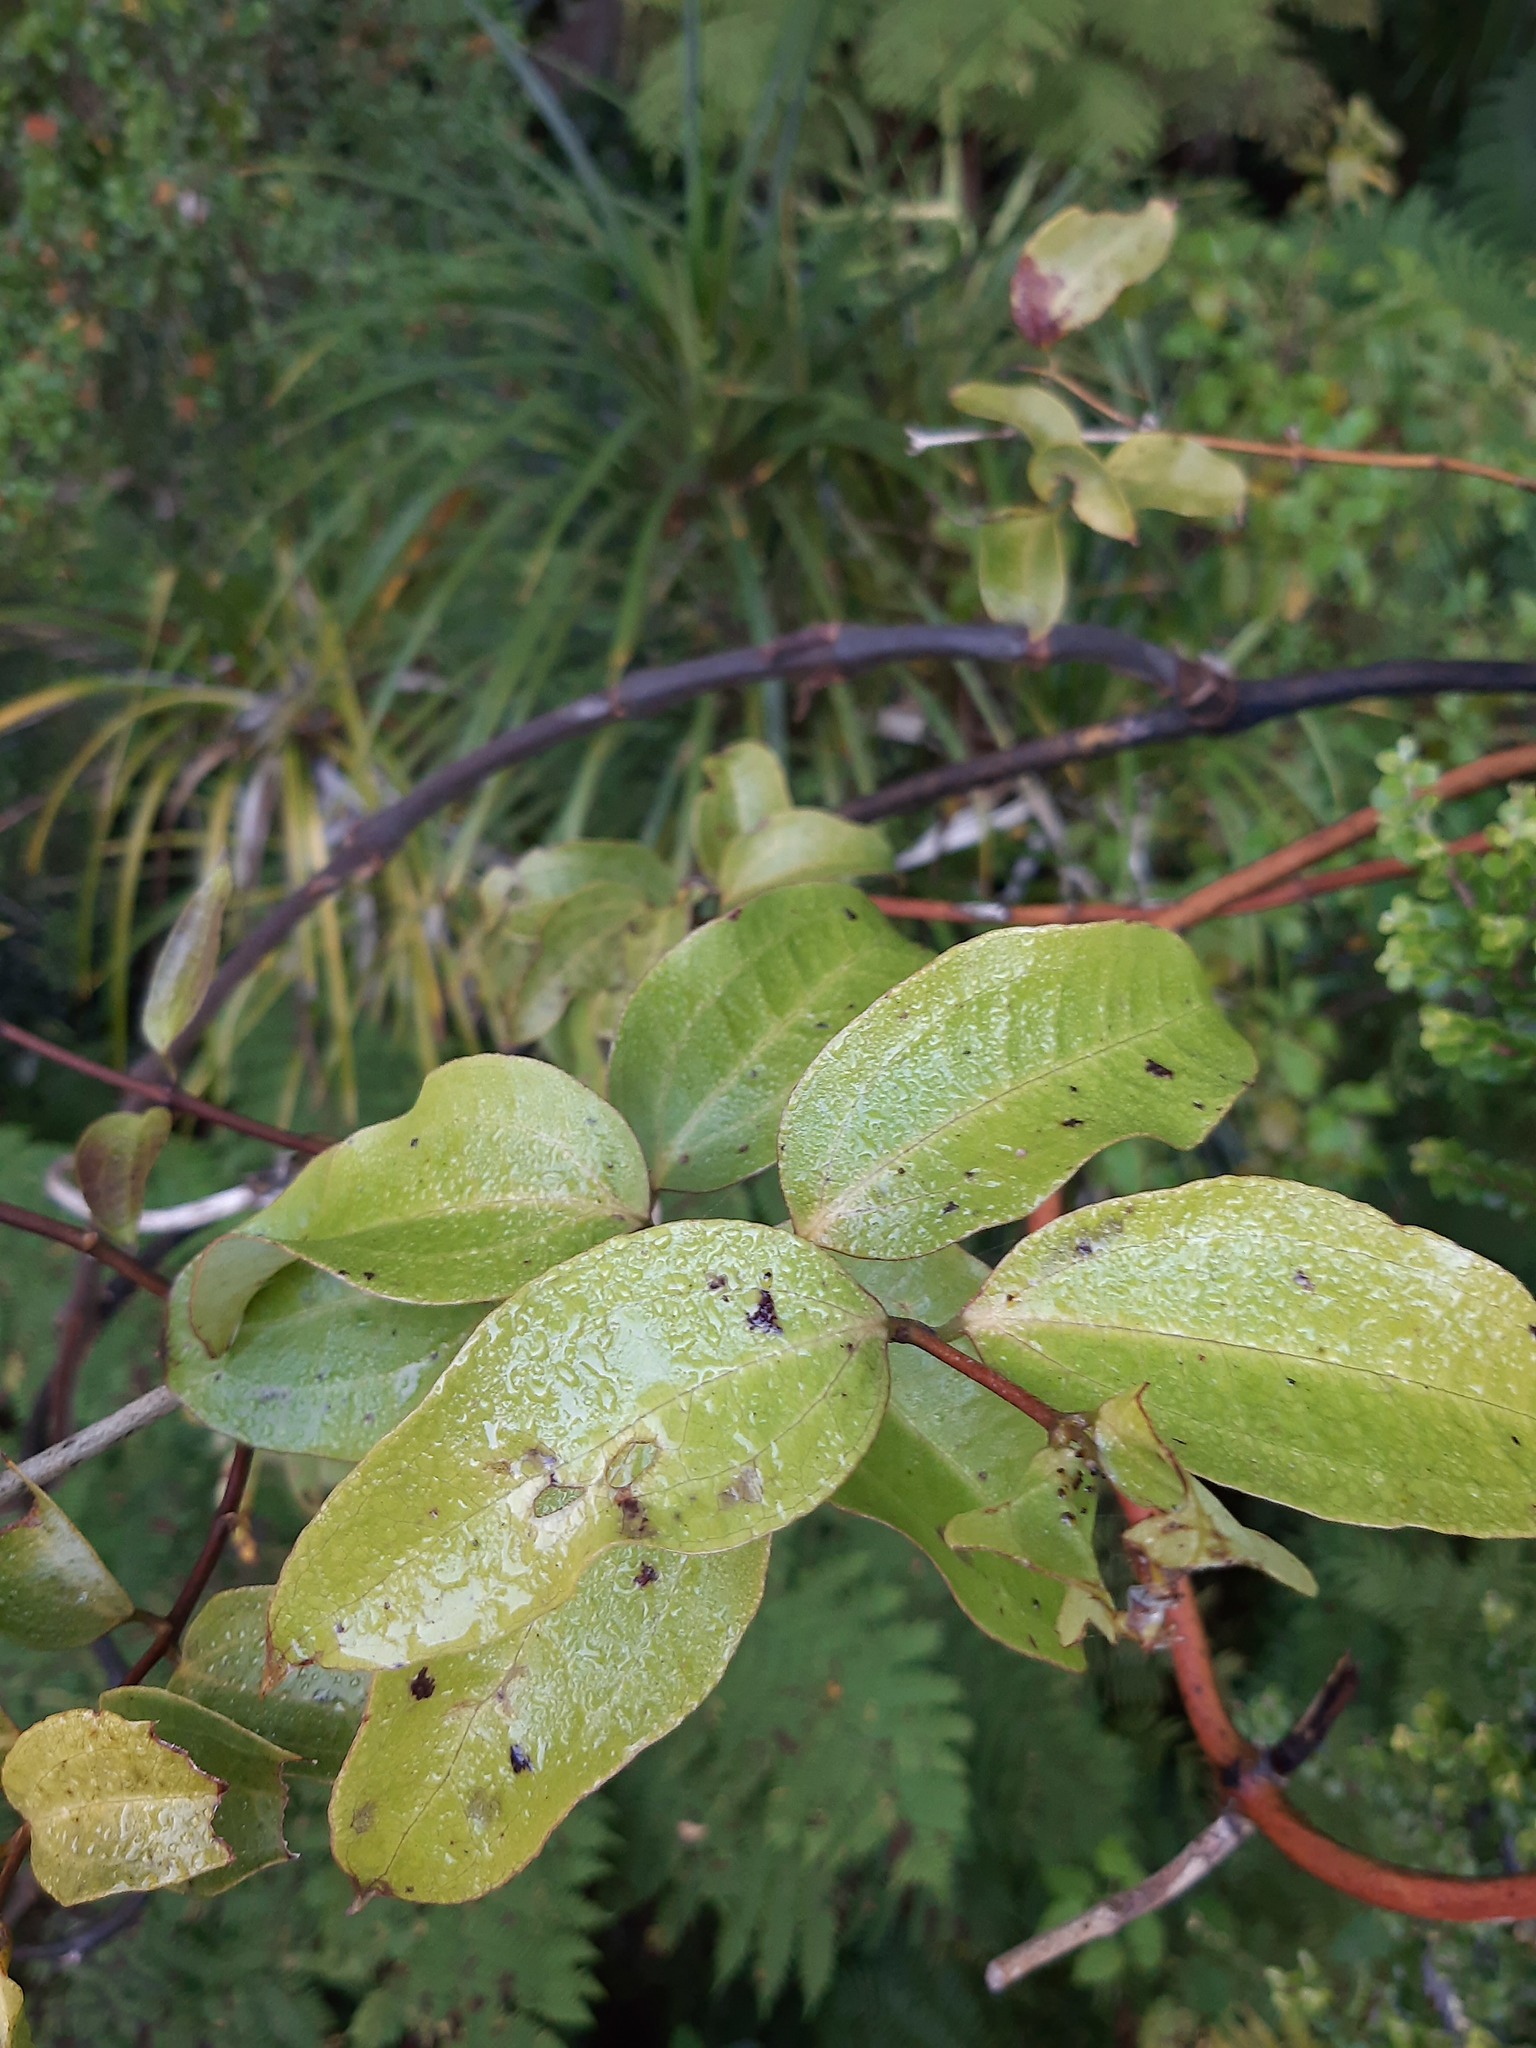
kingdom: Plantae
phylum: Tracheophyta
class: Liliopsida
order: Liliales
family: Ripogonaceae
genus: Ripogonum
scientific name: Ripogonum scandens
